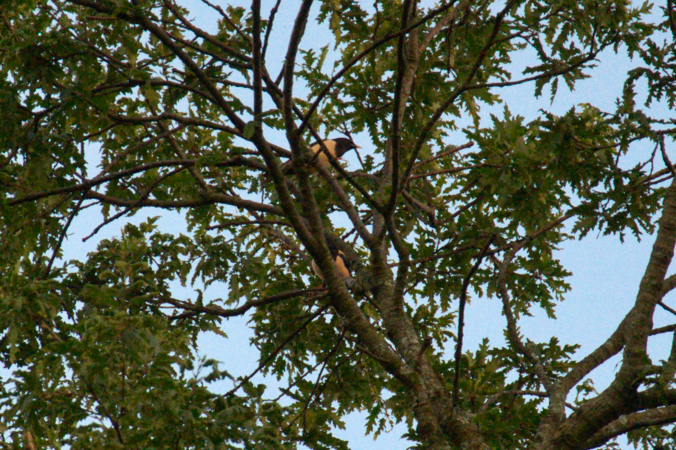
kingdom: Animalia
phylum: Chordata
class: Aves
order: Passeriformes
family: Sturnidae
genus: Pastor
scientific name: Pastor roseus
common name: Rosy starling
